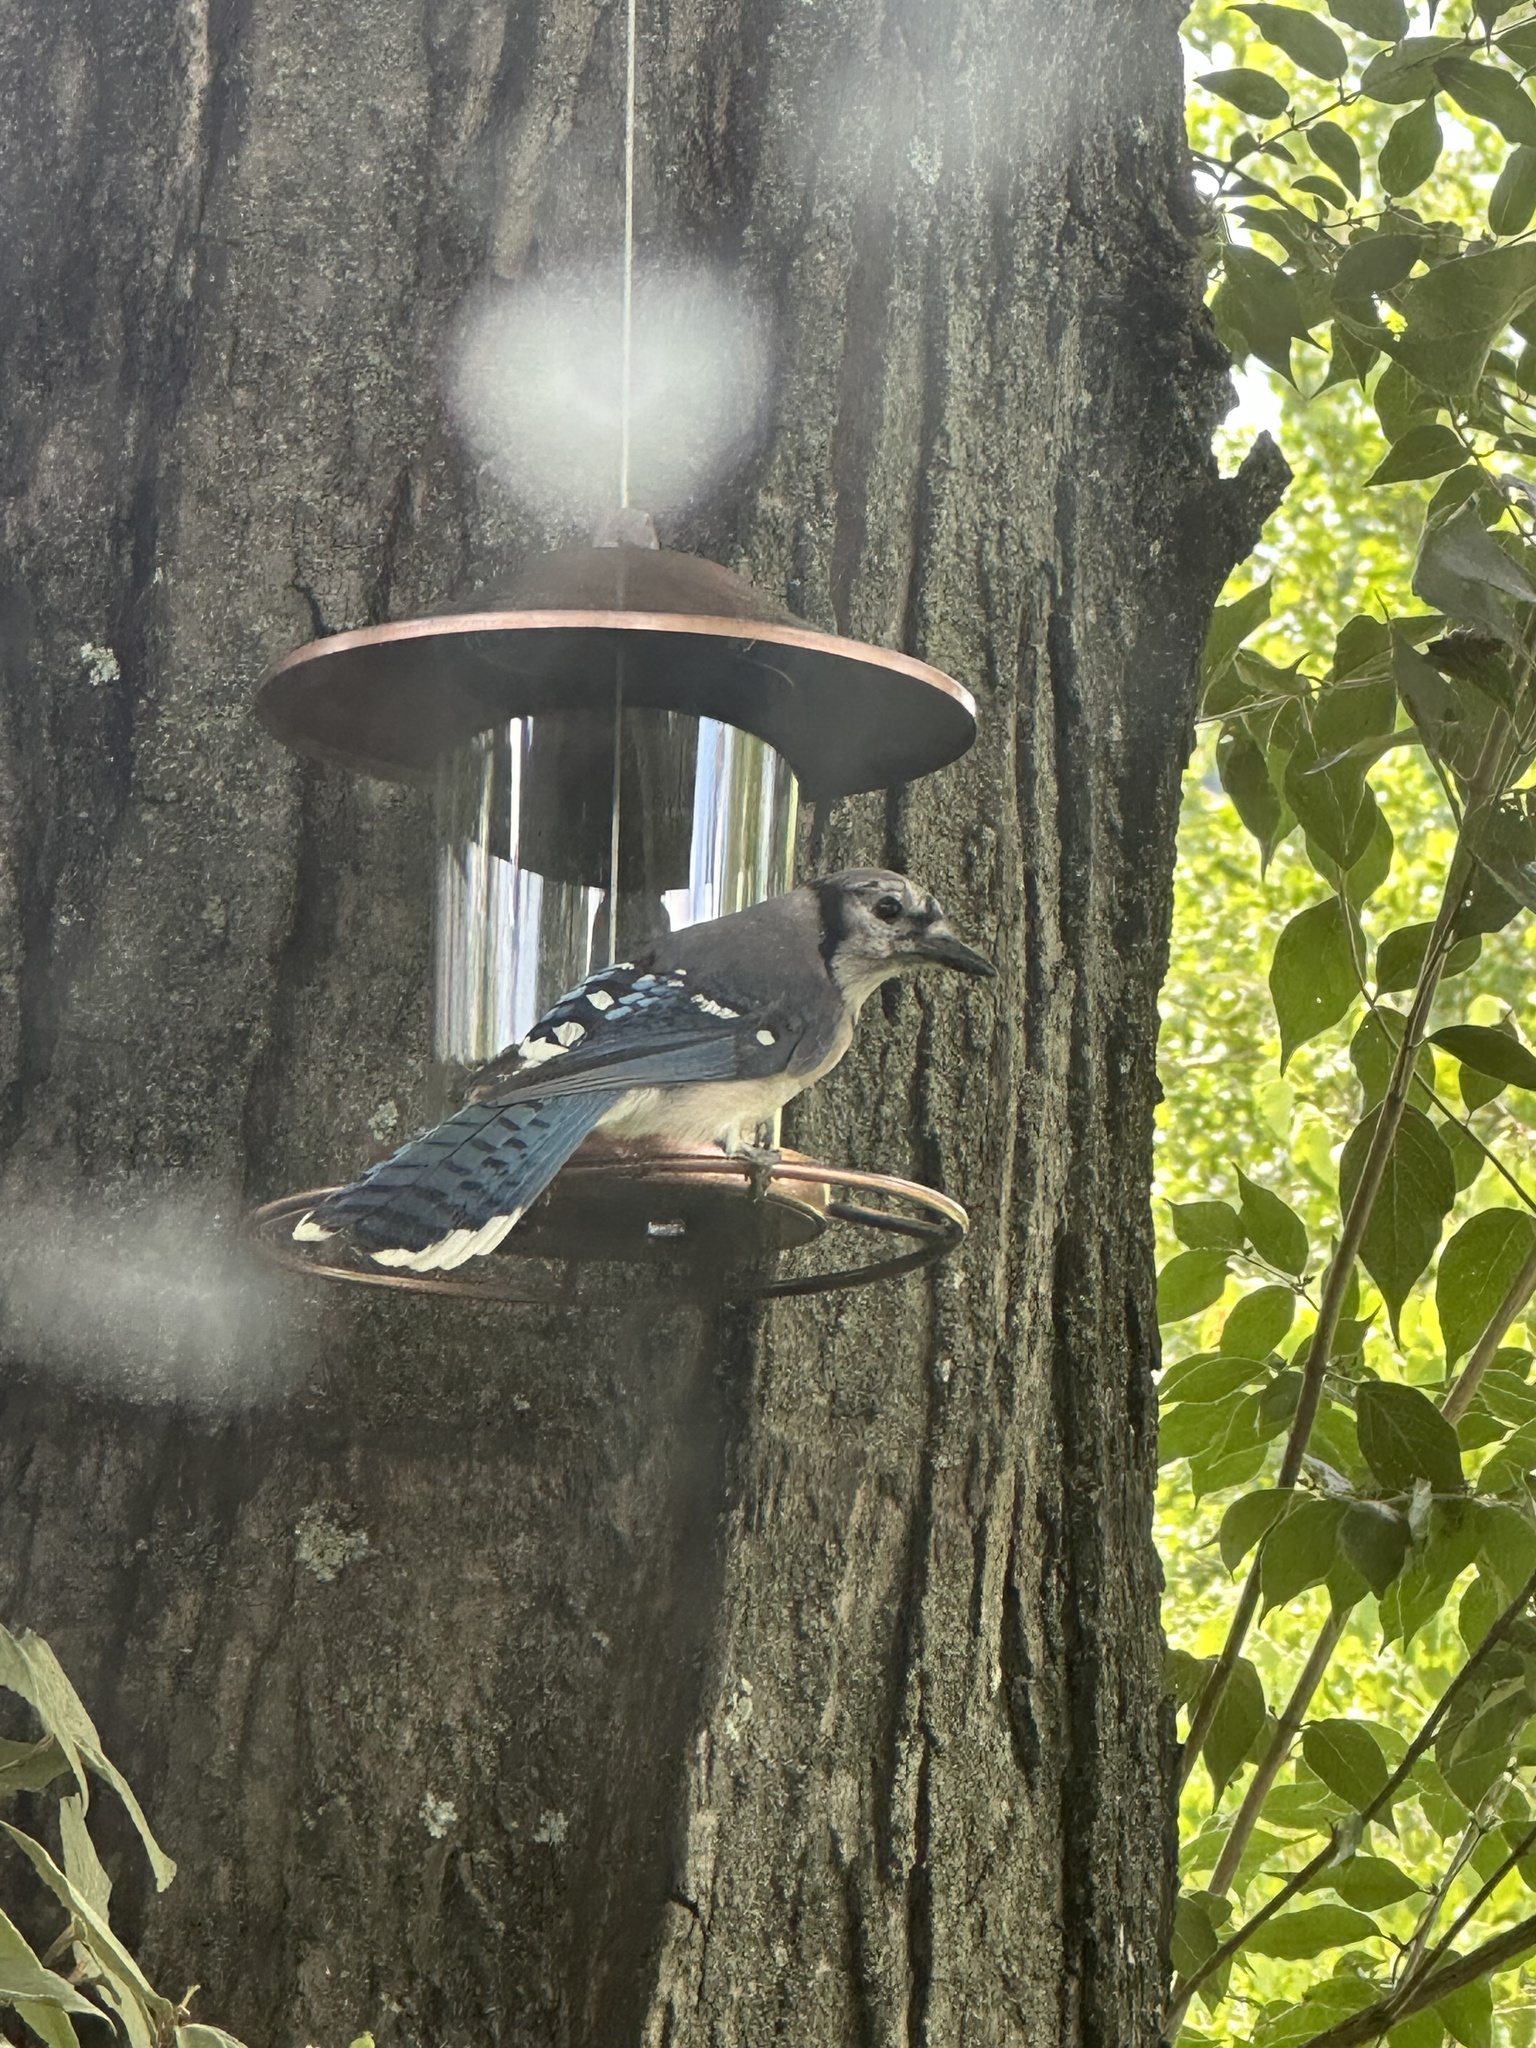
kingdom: Animalia
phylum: Chordata
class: Aves
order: Passeriformes
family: Corvidae
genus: Cyanocitta
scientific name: Cyanocitta cristata
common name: Blue jay
